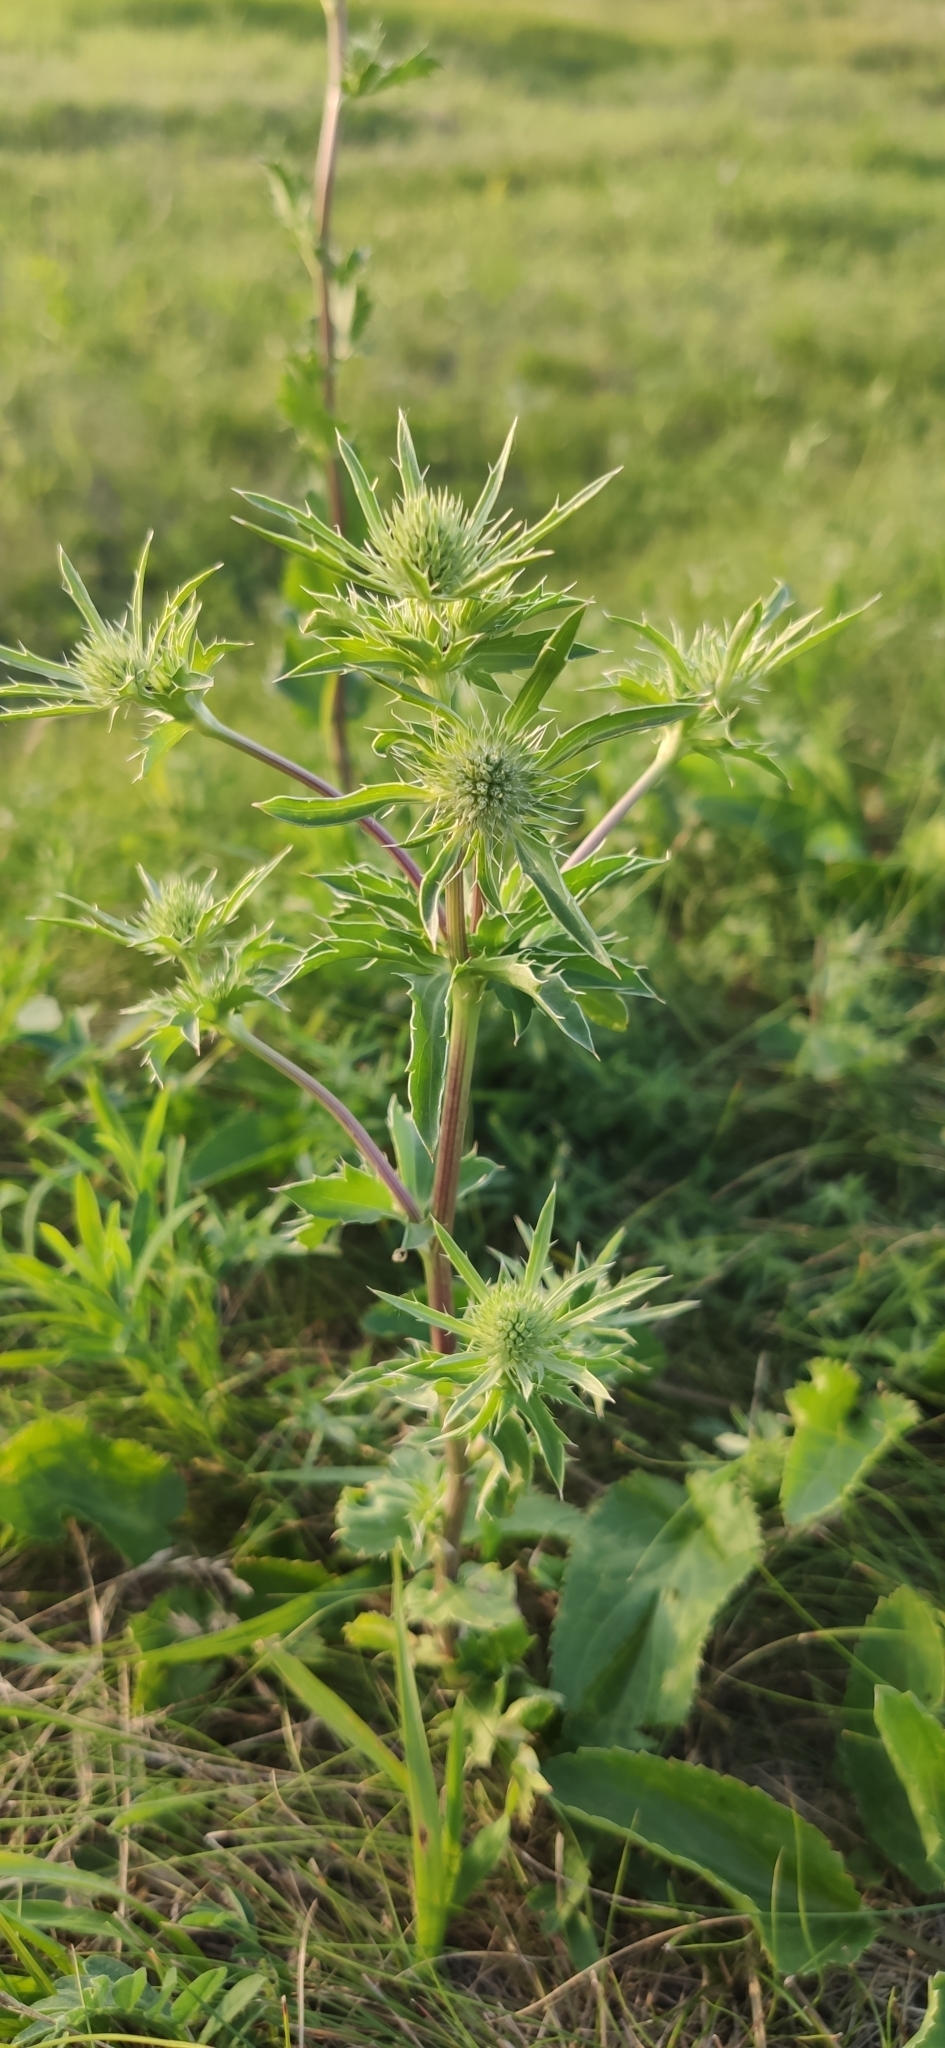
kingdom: Plantae
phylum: Tracheophyta
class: Magnoliopsida
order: Apiales
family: Apiaceae
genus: Eryngium
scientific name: Eryngium planum
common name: Blue eryngo
